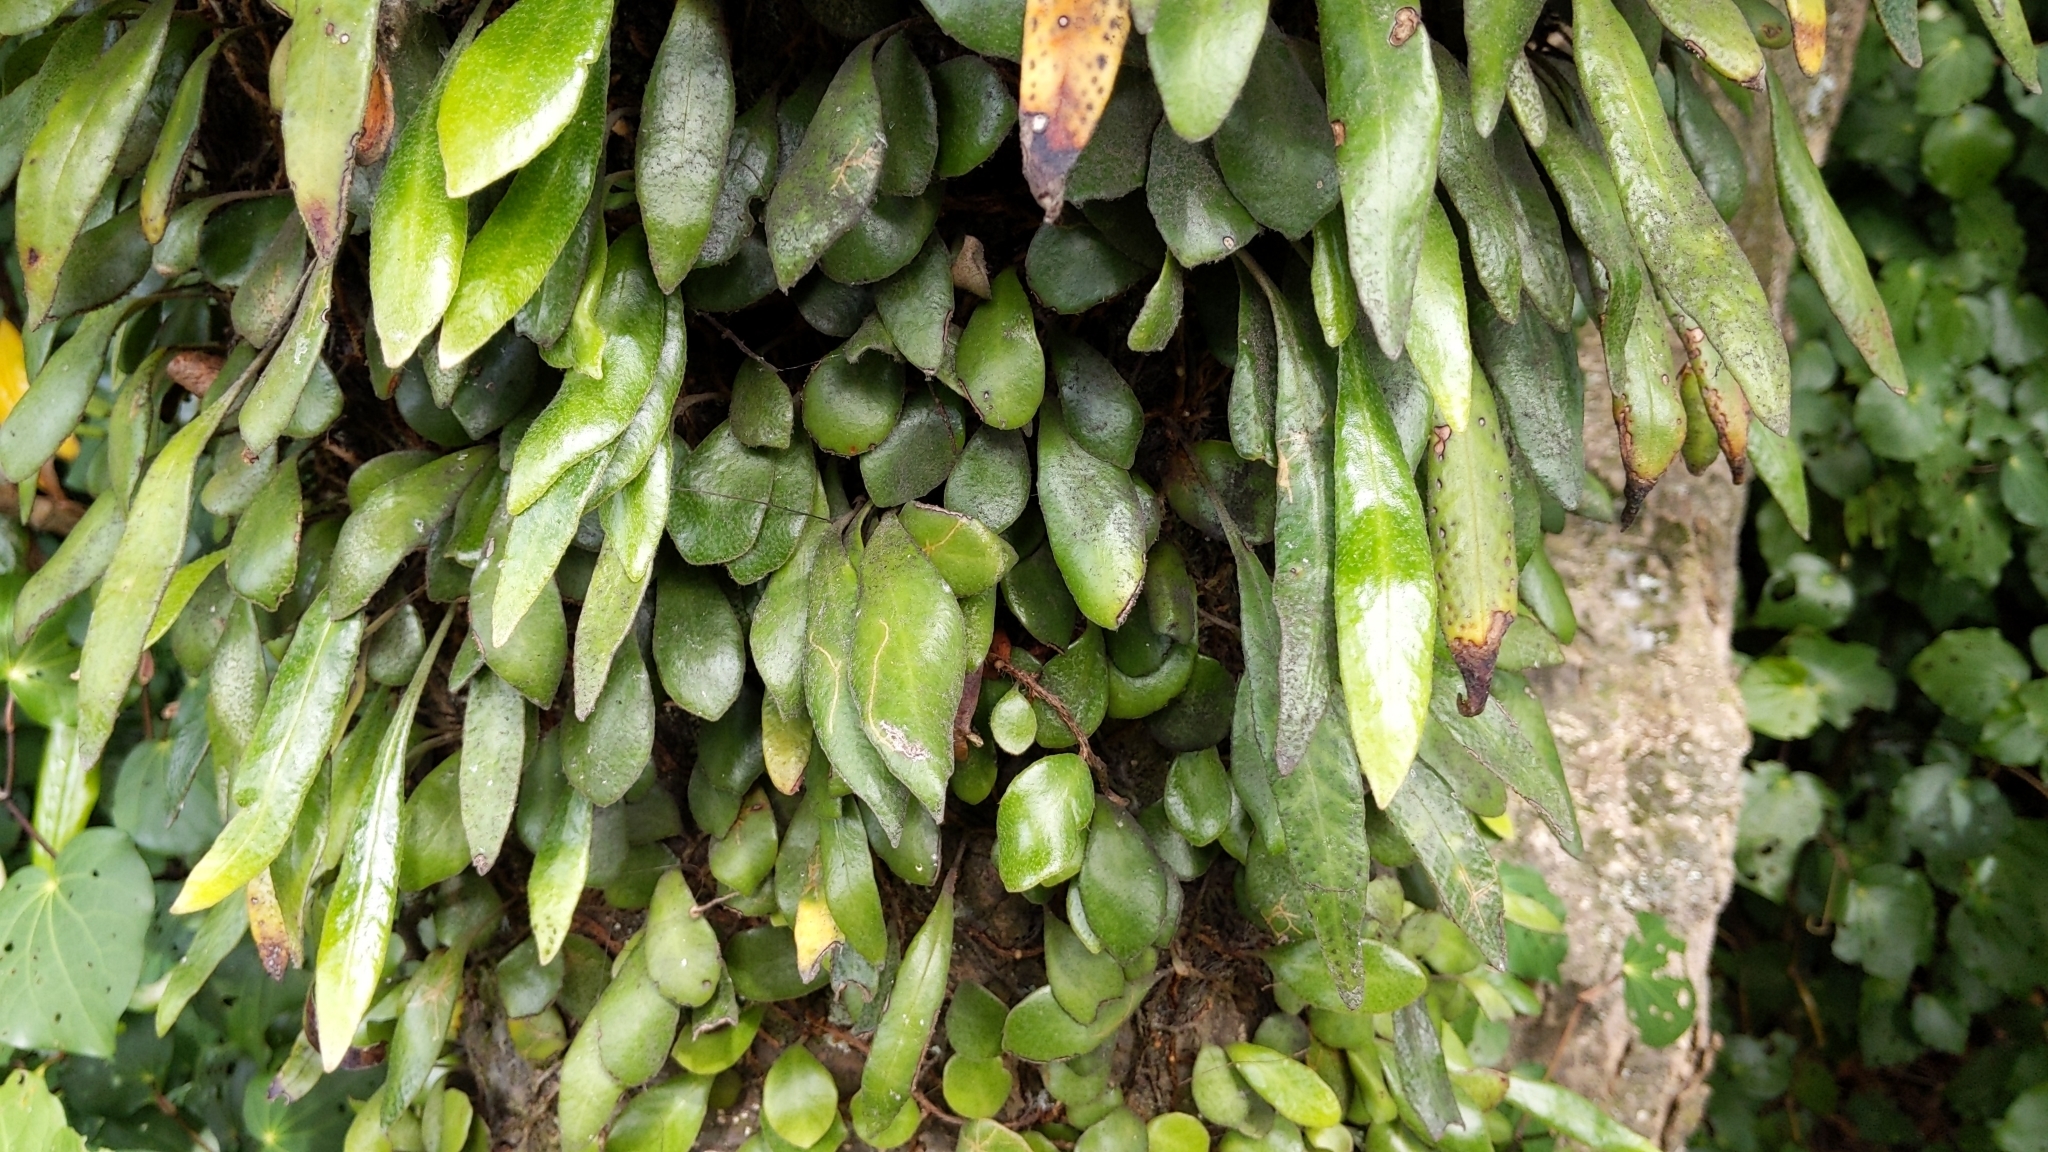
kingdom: Plantae
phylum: Tracheophyta
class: Polypodiopsida
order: Polypodiales
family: Polypodiaceae
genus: Pyrrosia
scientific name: Pyrrosia eleagnifolia
